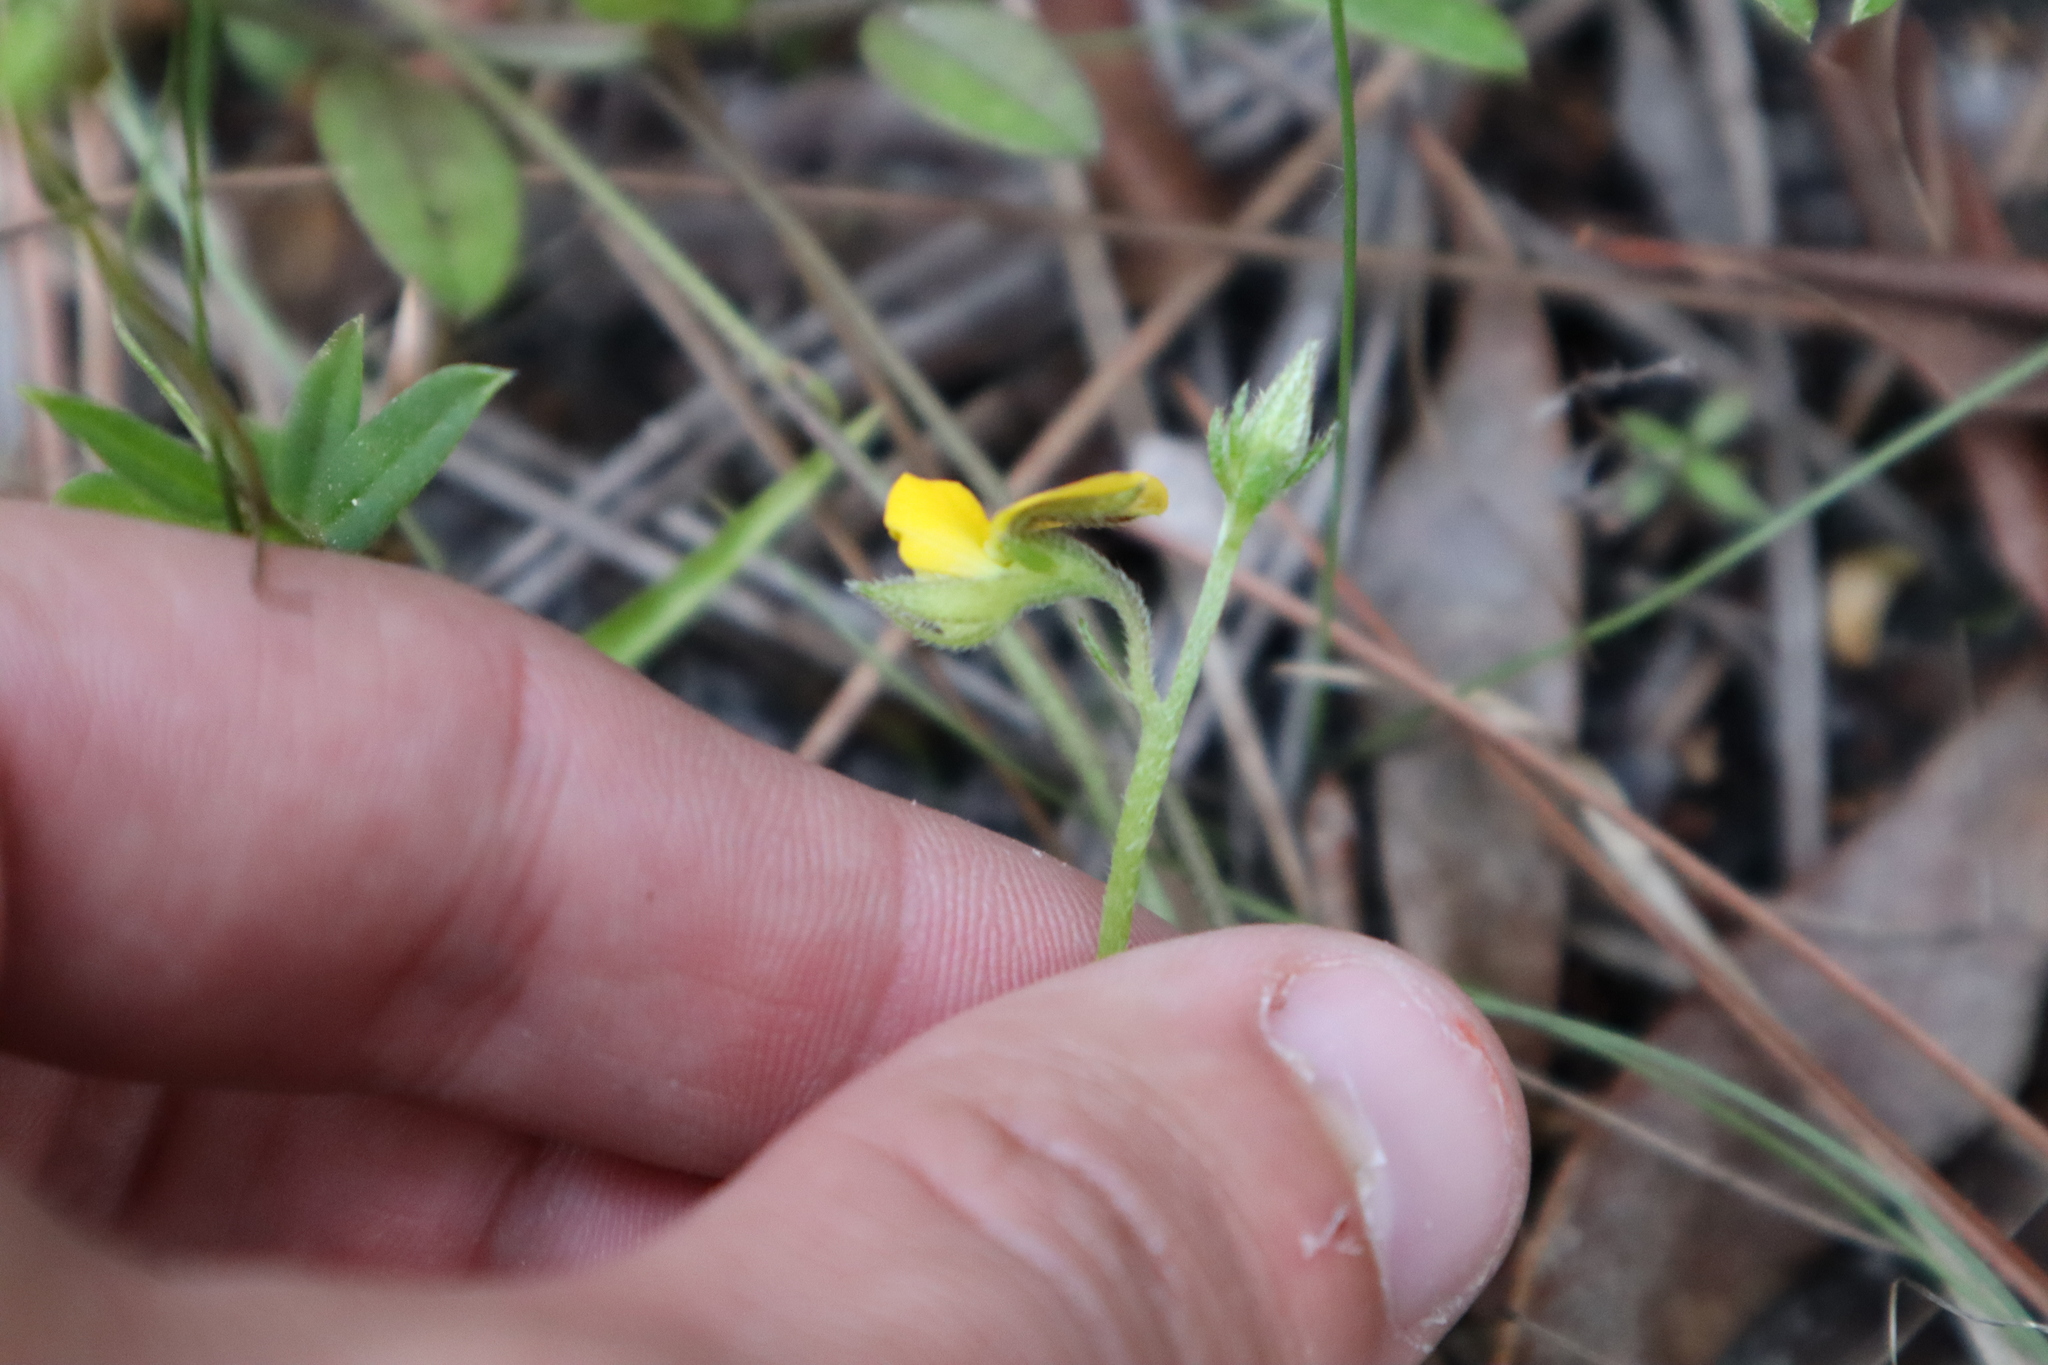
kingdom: Plantae
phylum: Tracheophyta
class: Magnoliopsida
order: Fabales
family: Fabaceae
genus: Crotalaria
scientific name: Crotalaria rotundifolia
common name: Prostrate rattlebox
